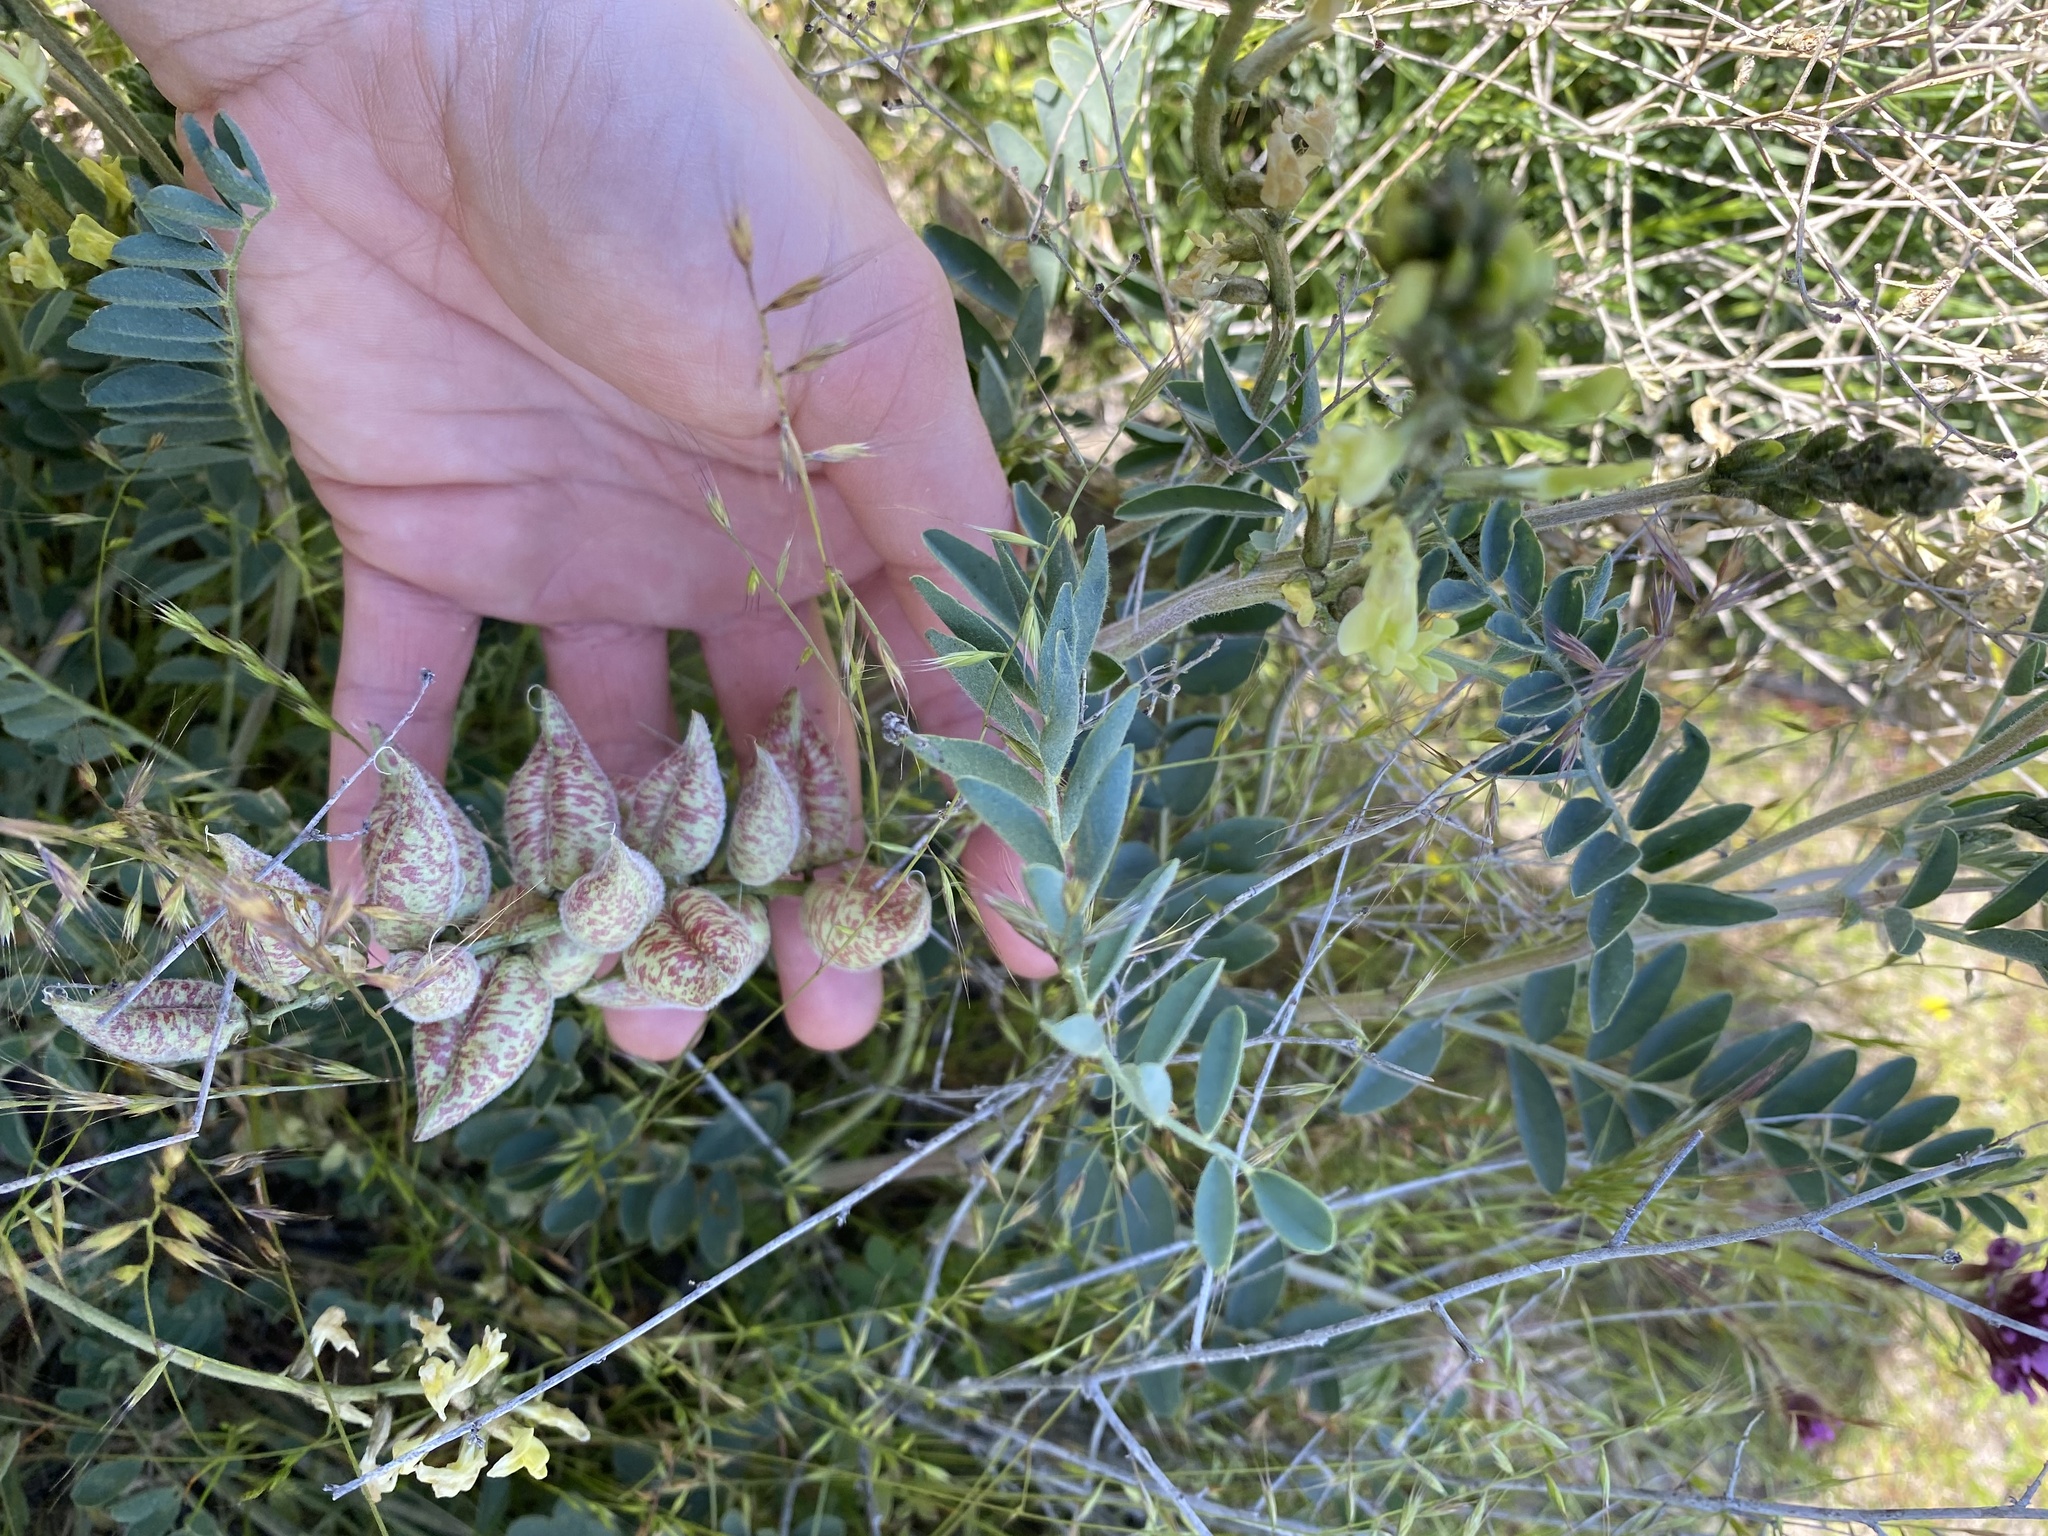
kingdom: Plantae
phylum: Tracheophyta
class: Magnoliopsida
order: Fabales
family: Fabaceae
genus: Astragalus
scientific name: Astragalus lentiginosus
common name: Freckled milkvetch
